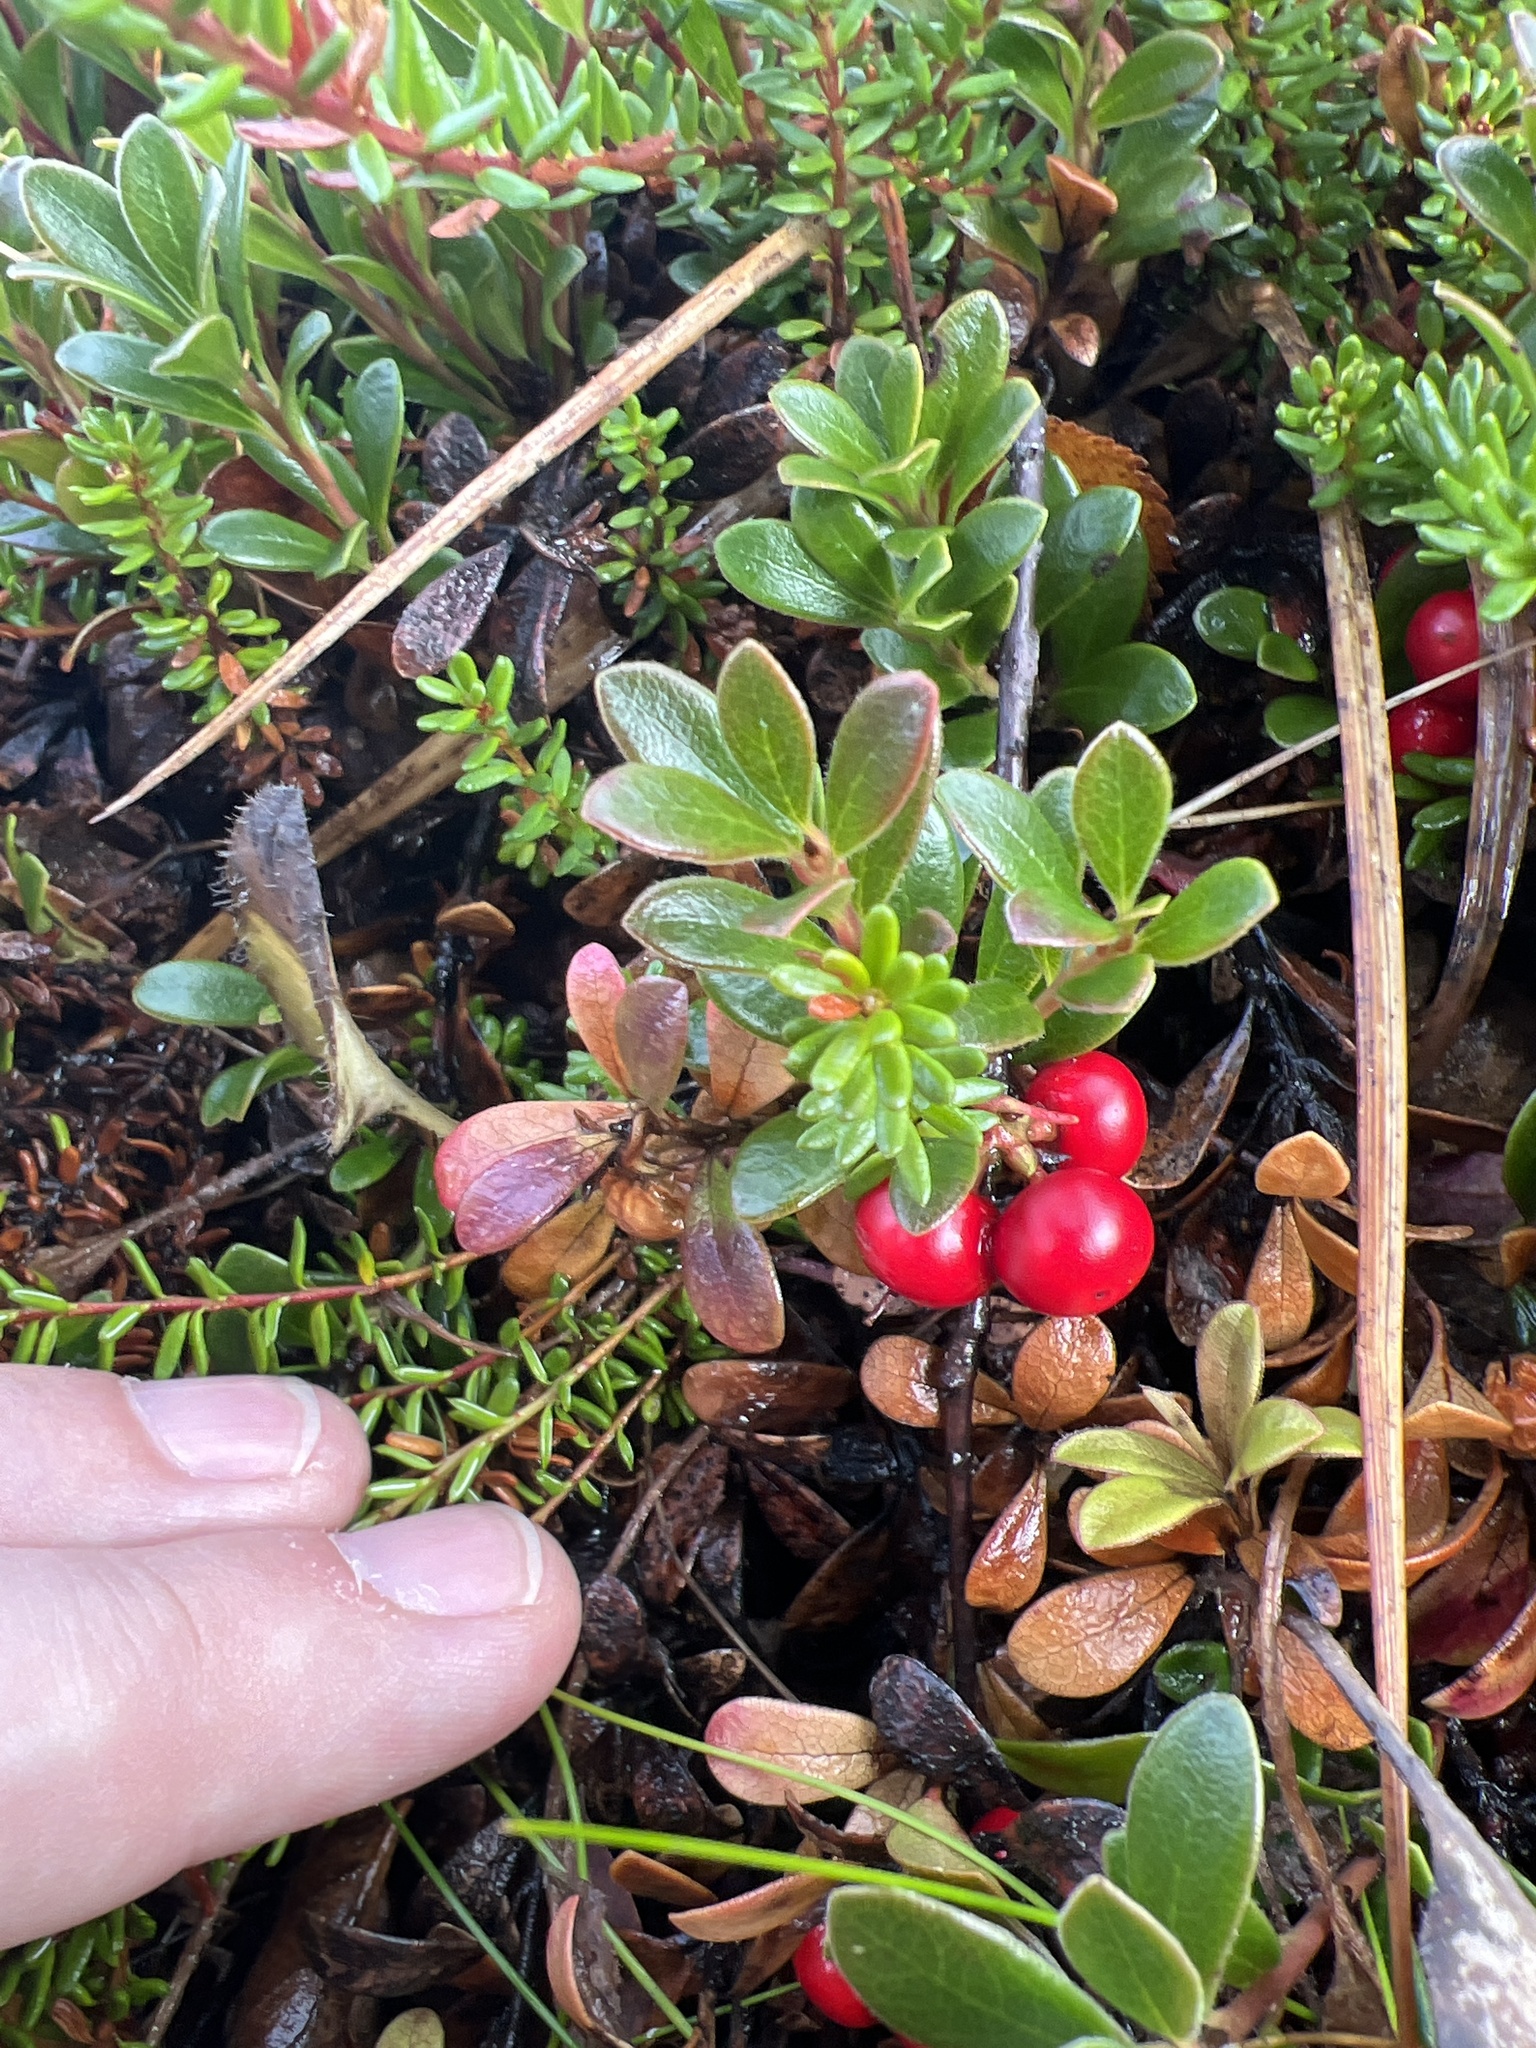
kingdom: Plantae
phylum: Tracheophyta
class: Magnoliopsida
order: Ericales
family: Ericaceae
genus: Arctostaphylos
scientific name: Arctostaphylos uva-ursi
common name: Bearberry
